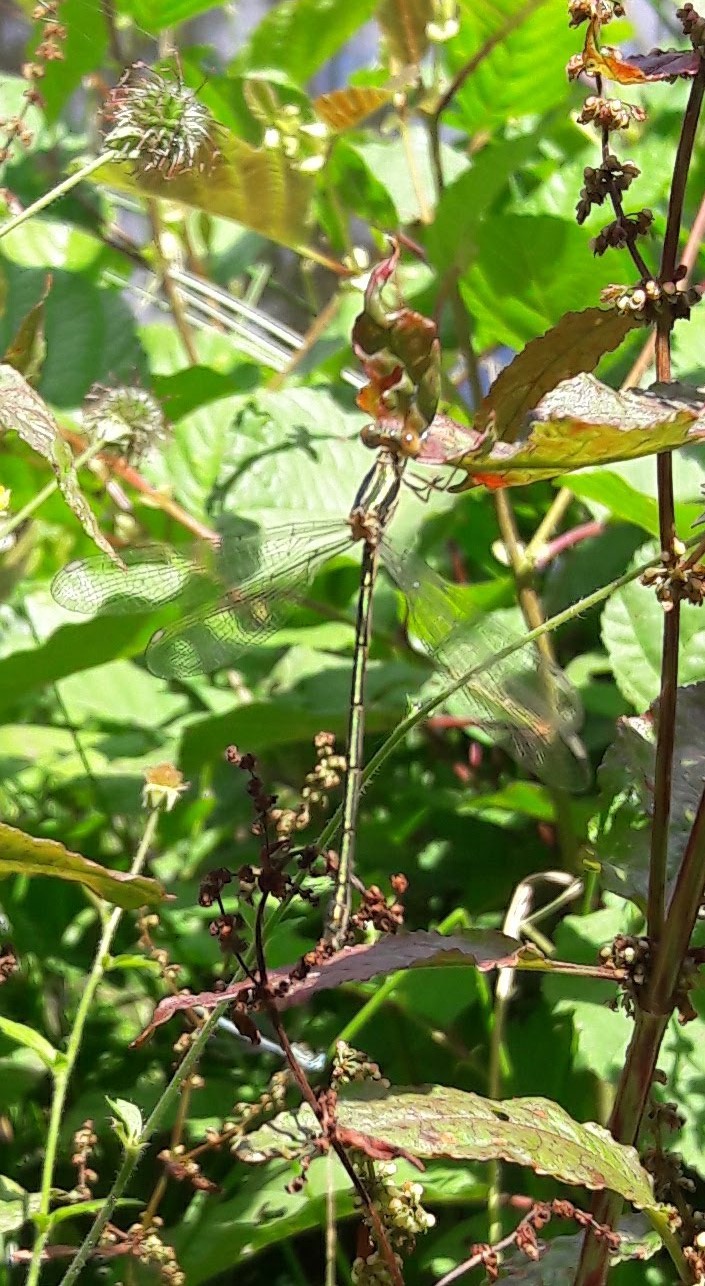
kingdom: Animalia
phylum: Arthropoda
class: Insecta
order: Odonata
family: Lestidae
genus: Chalcolestes
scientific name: Chalcolestes viridis
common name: Green emerald damselfly
